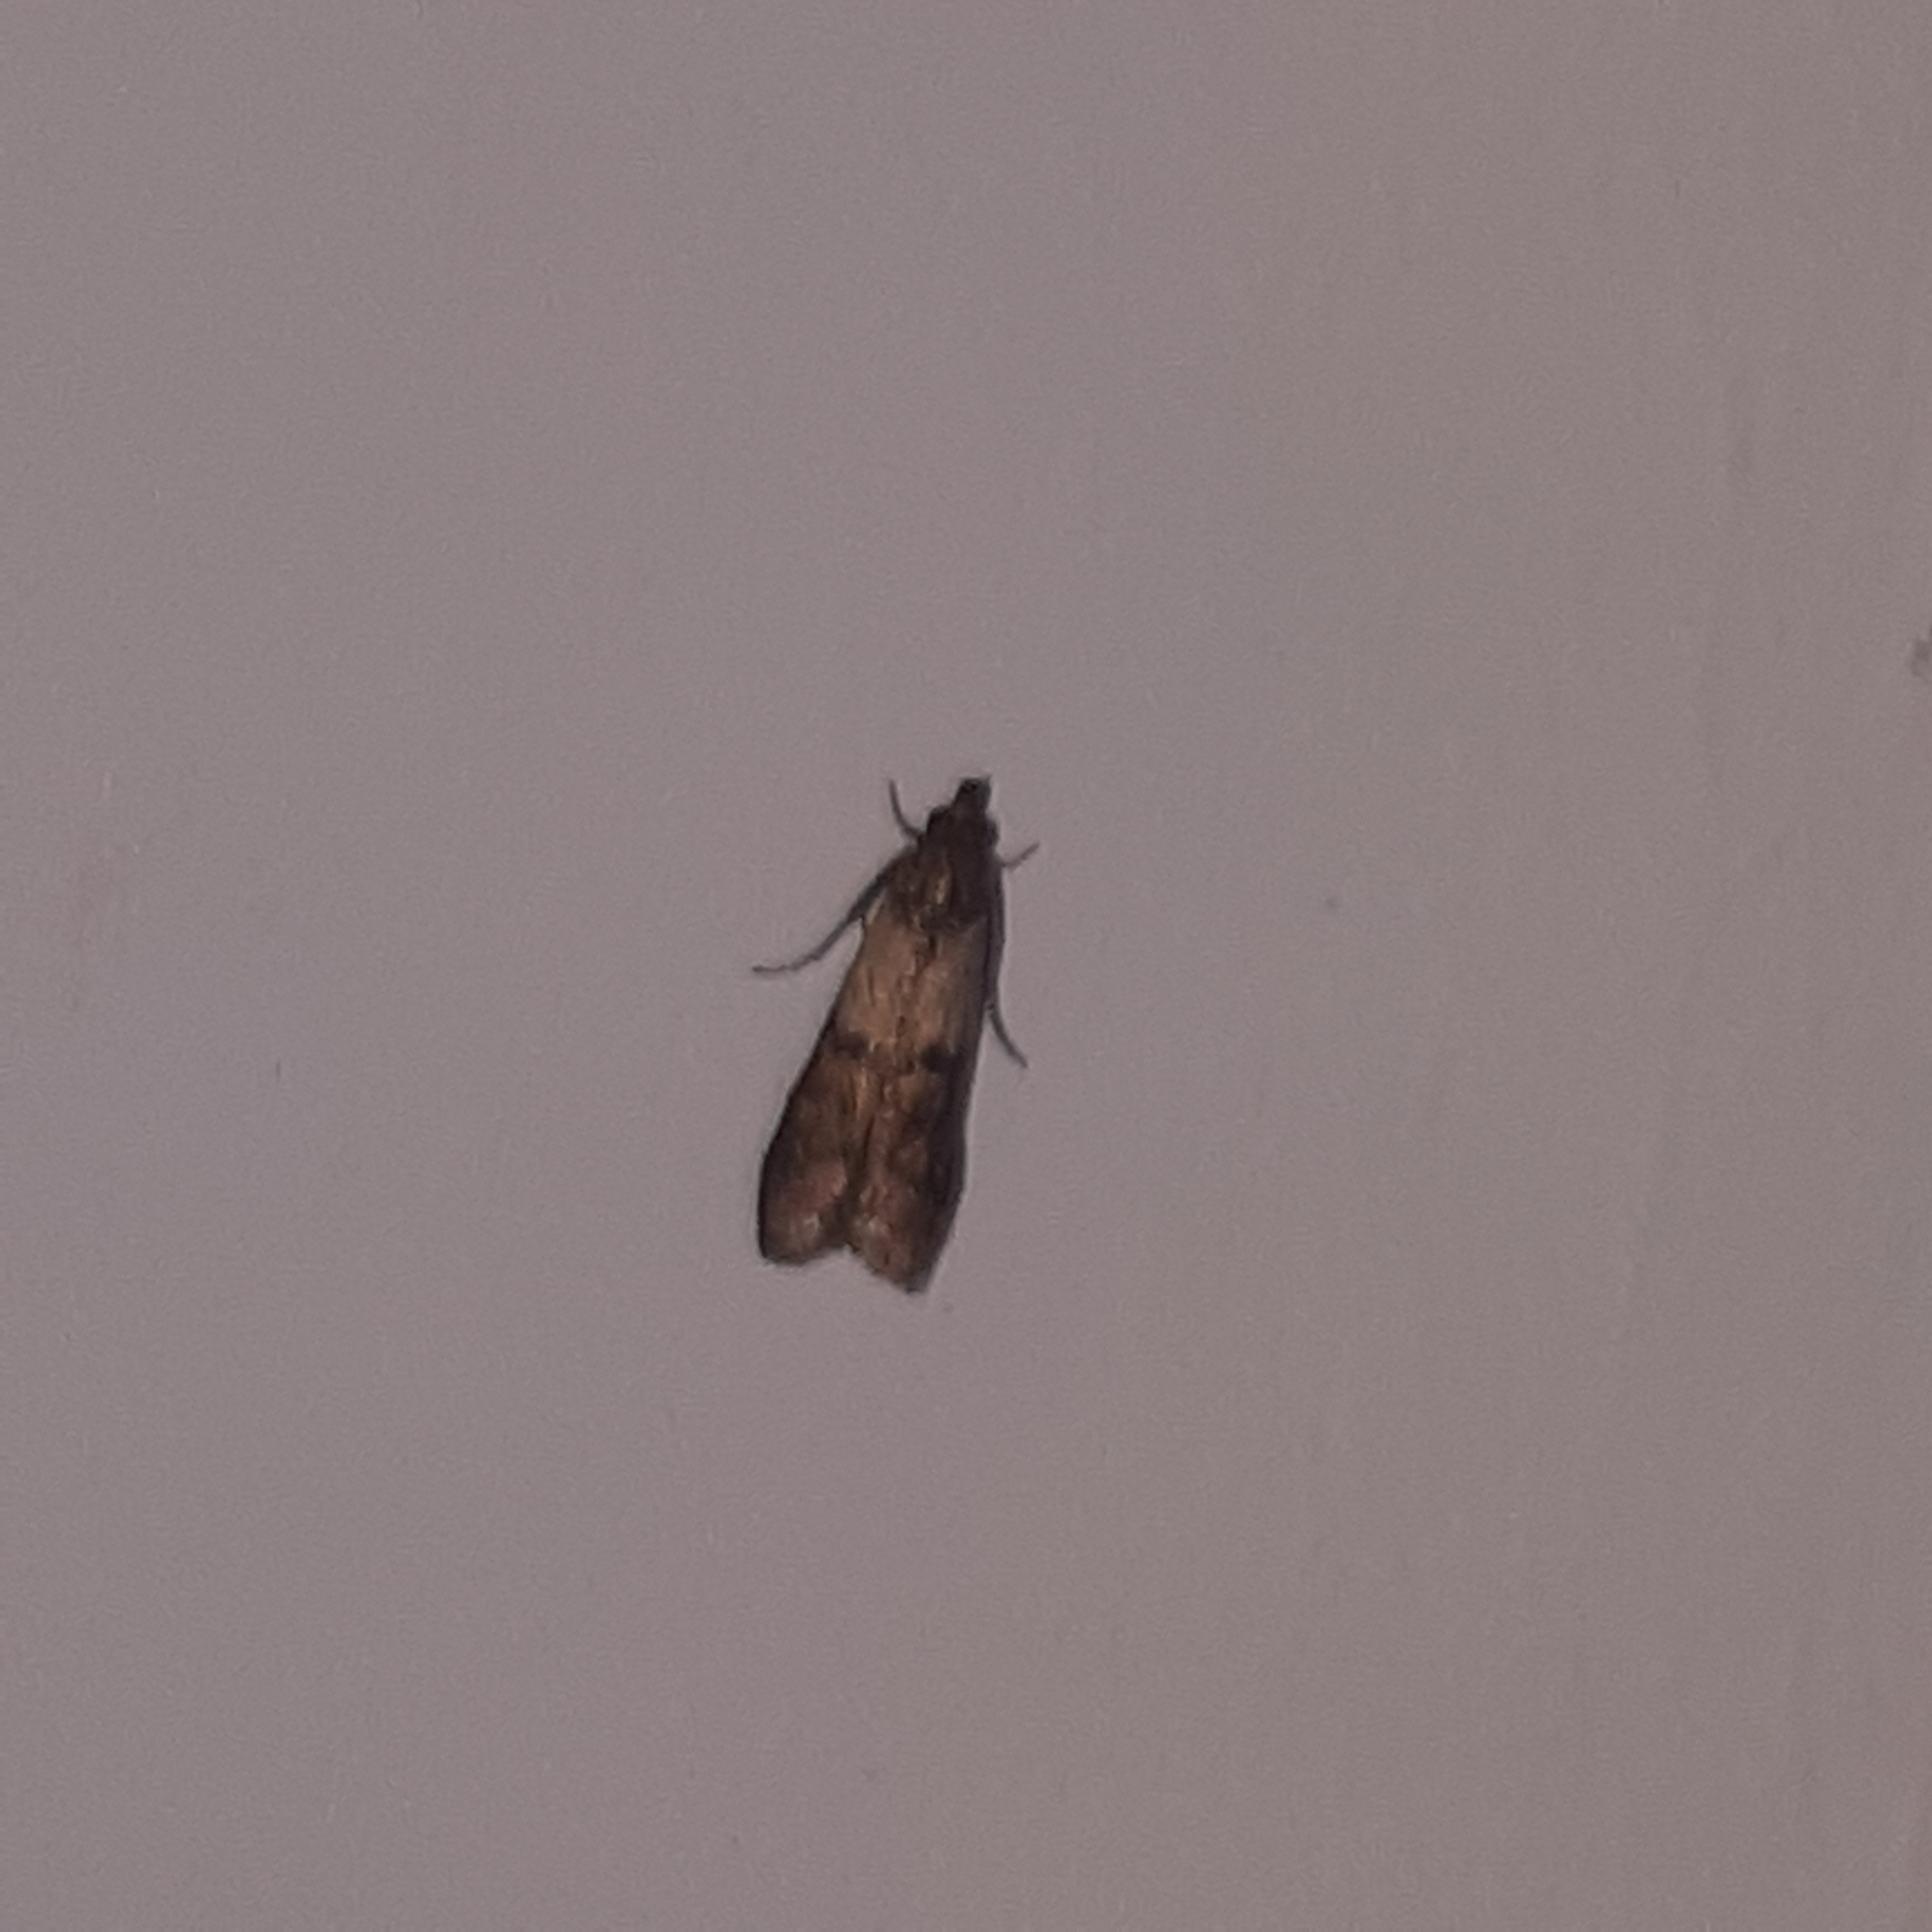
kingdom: Animalia
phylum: Arthropoda
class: Insecta
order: Lepidoptera
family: Pyralidae
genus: Plodia
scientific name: Plodia interpunctella
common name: Indian meal moth
